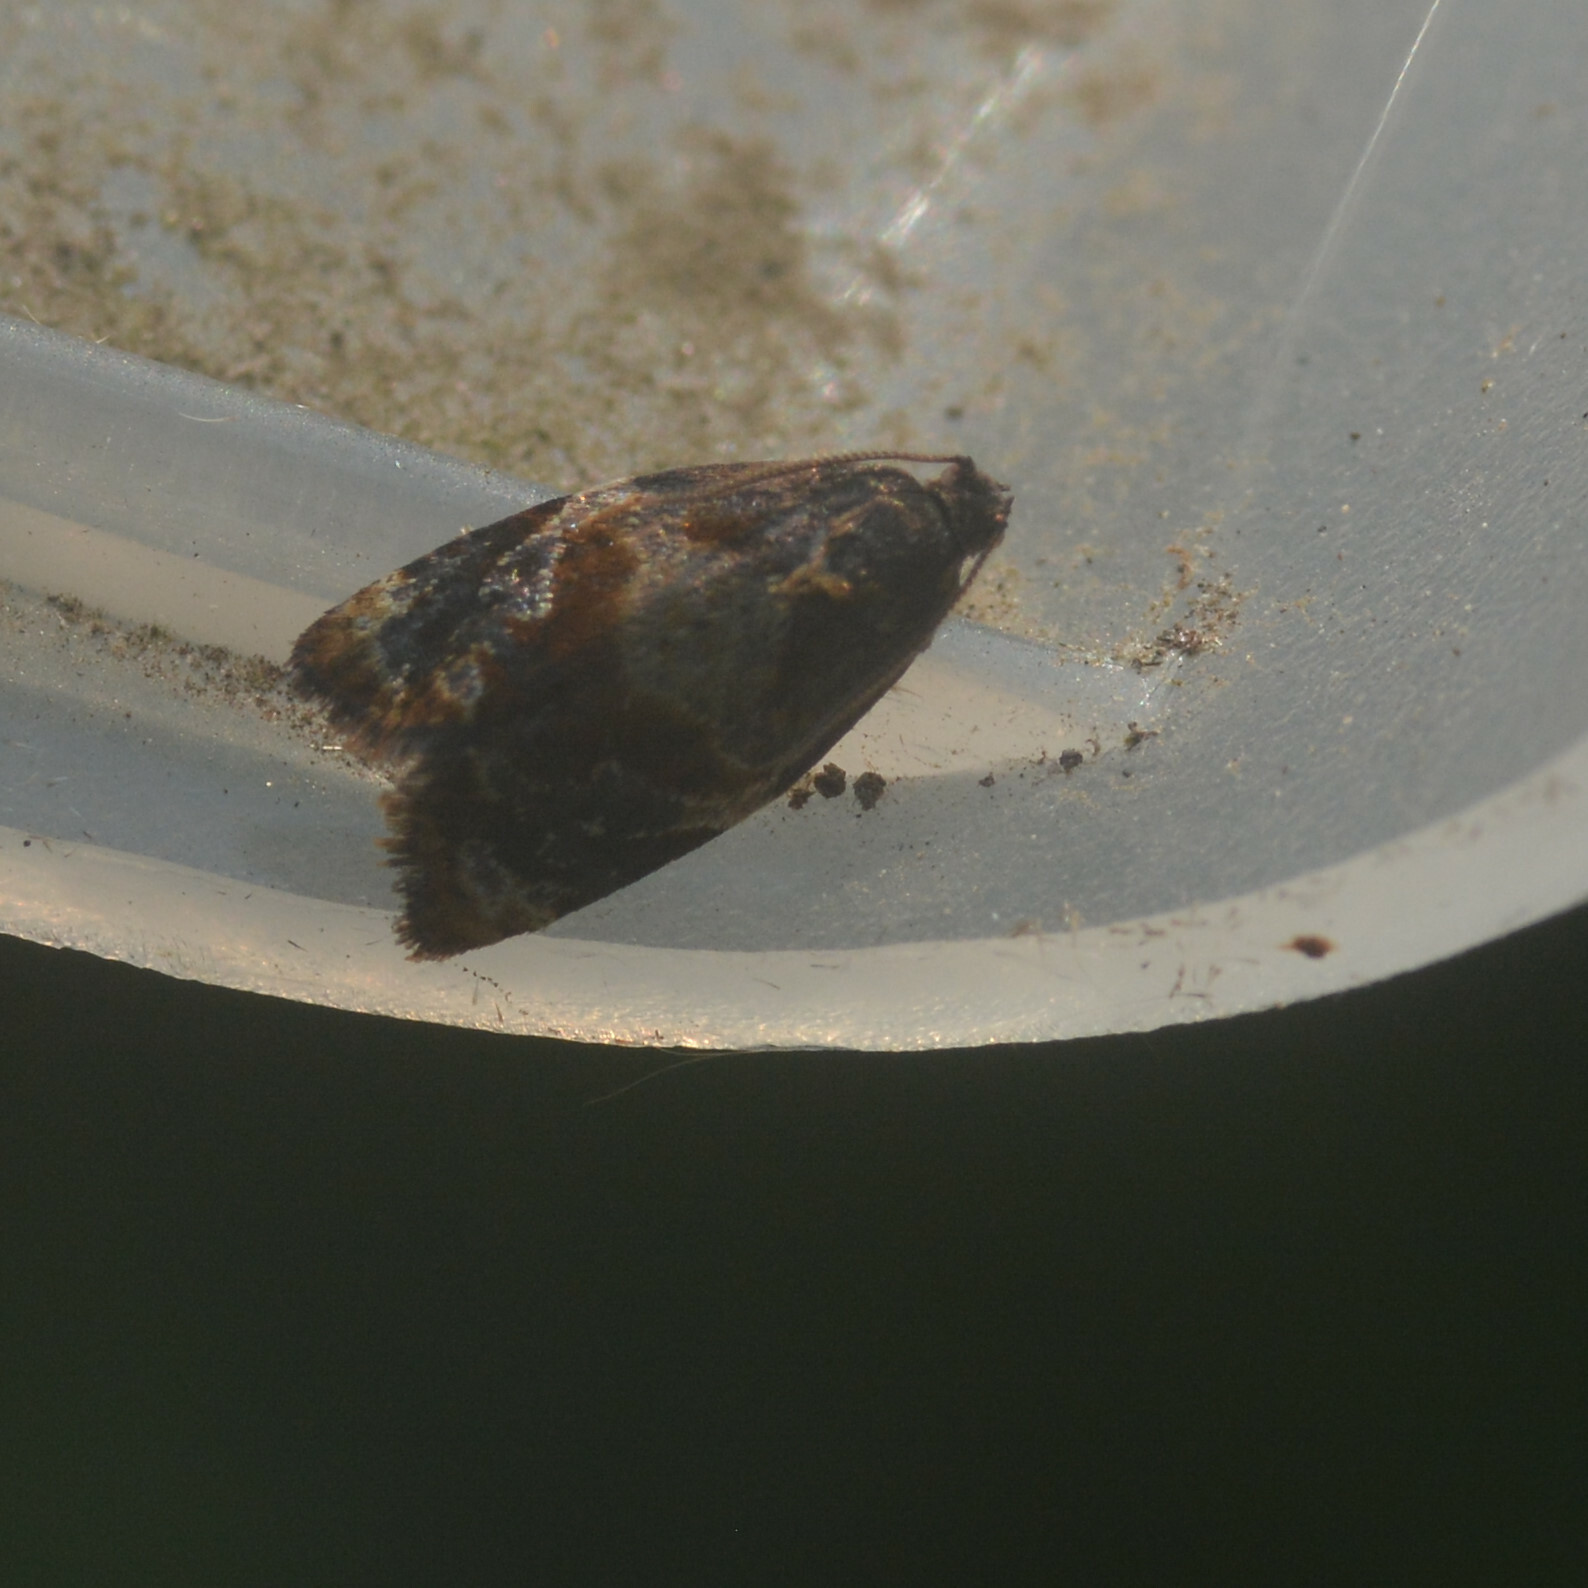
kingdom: Animalia
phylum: Arthropoda
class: Insecta
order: Lepidoptera
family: Tortricidae
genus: Ditula
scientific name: Ditula angustiorana
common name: Red-barred tortrix
